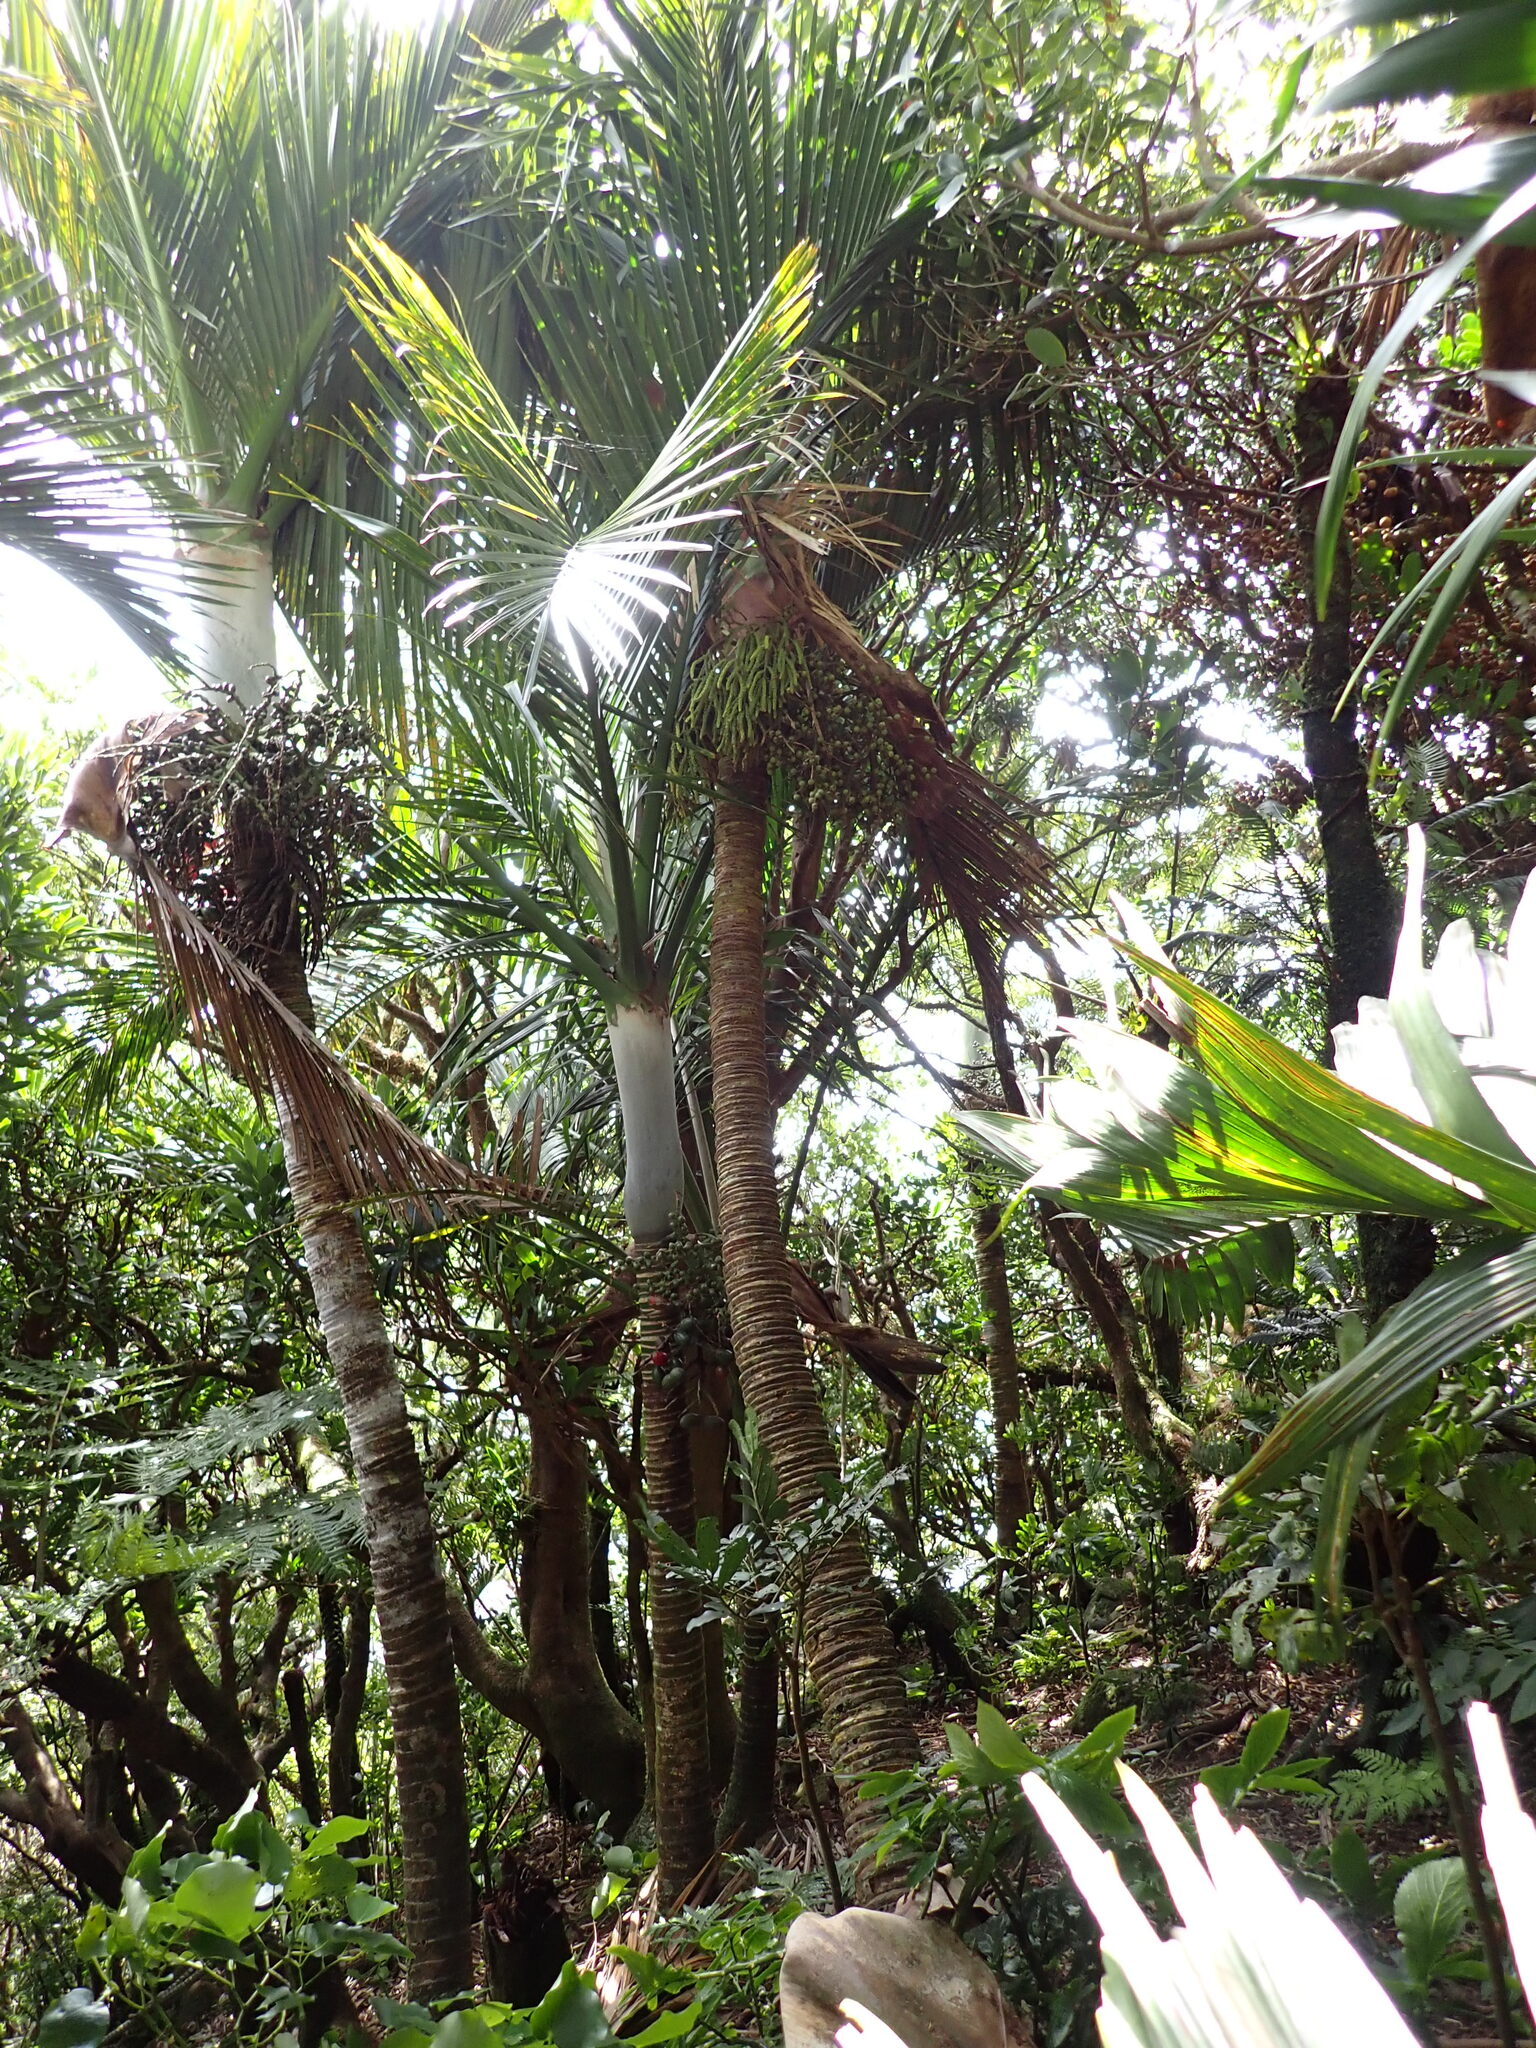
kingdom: Plantae
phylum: Tracheophyta
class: Liliopsida
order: Arecales
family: Arecaceae
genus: Hedyscepe
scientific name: Hedyscepe canterburyana
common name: Umbrella palm
